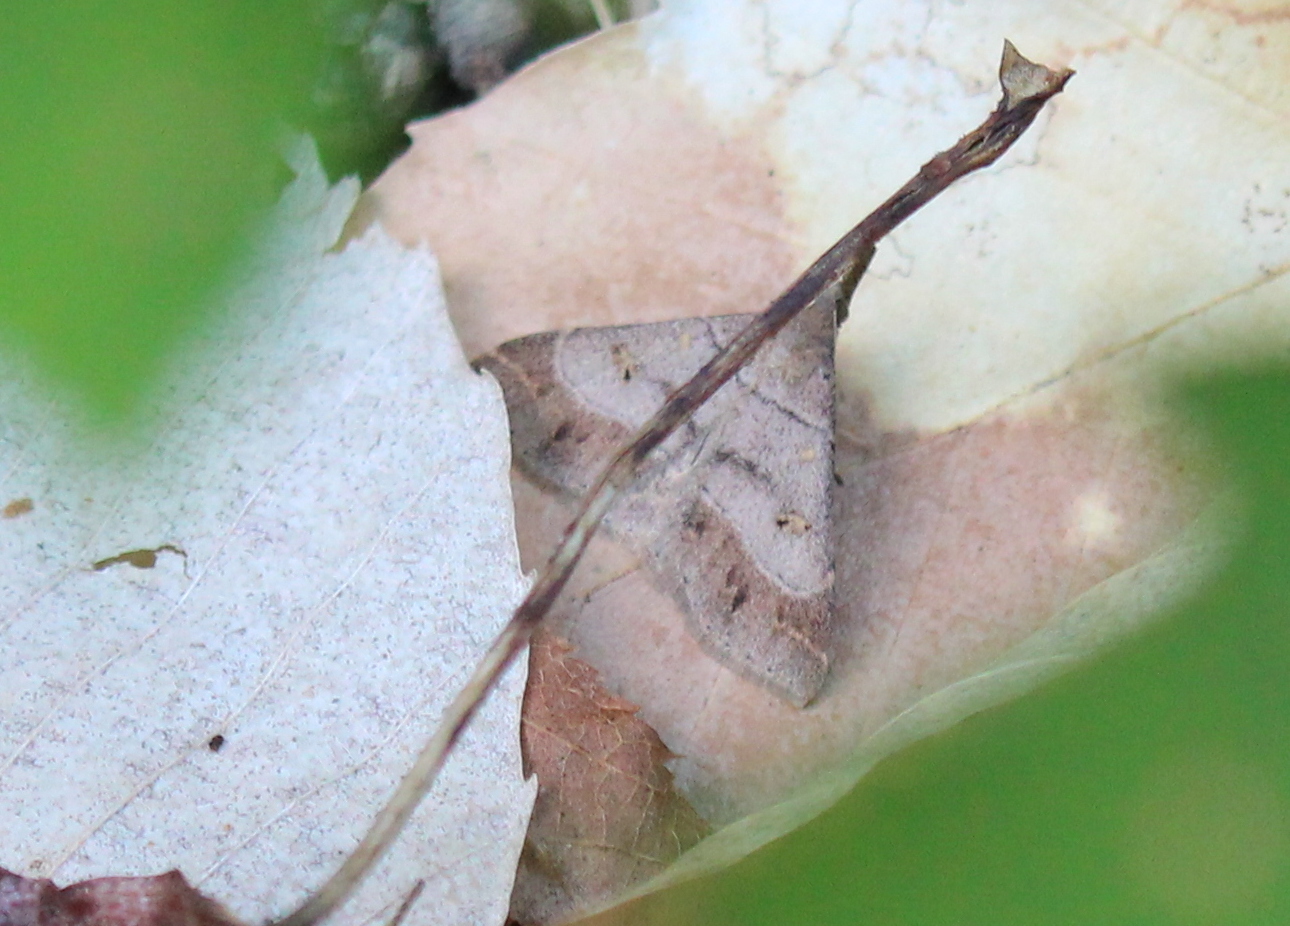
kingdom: Animalia
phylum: Arthropoda
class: Insecta
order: Lepidoptera
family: Erebidae
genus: Renia
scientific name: Renia flavipunctalis
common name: Yellow-spotted renia moth
